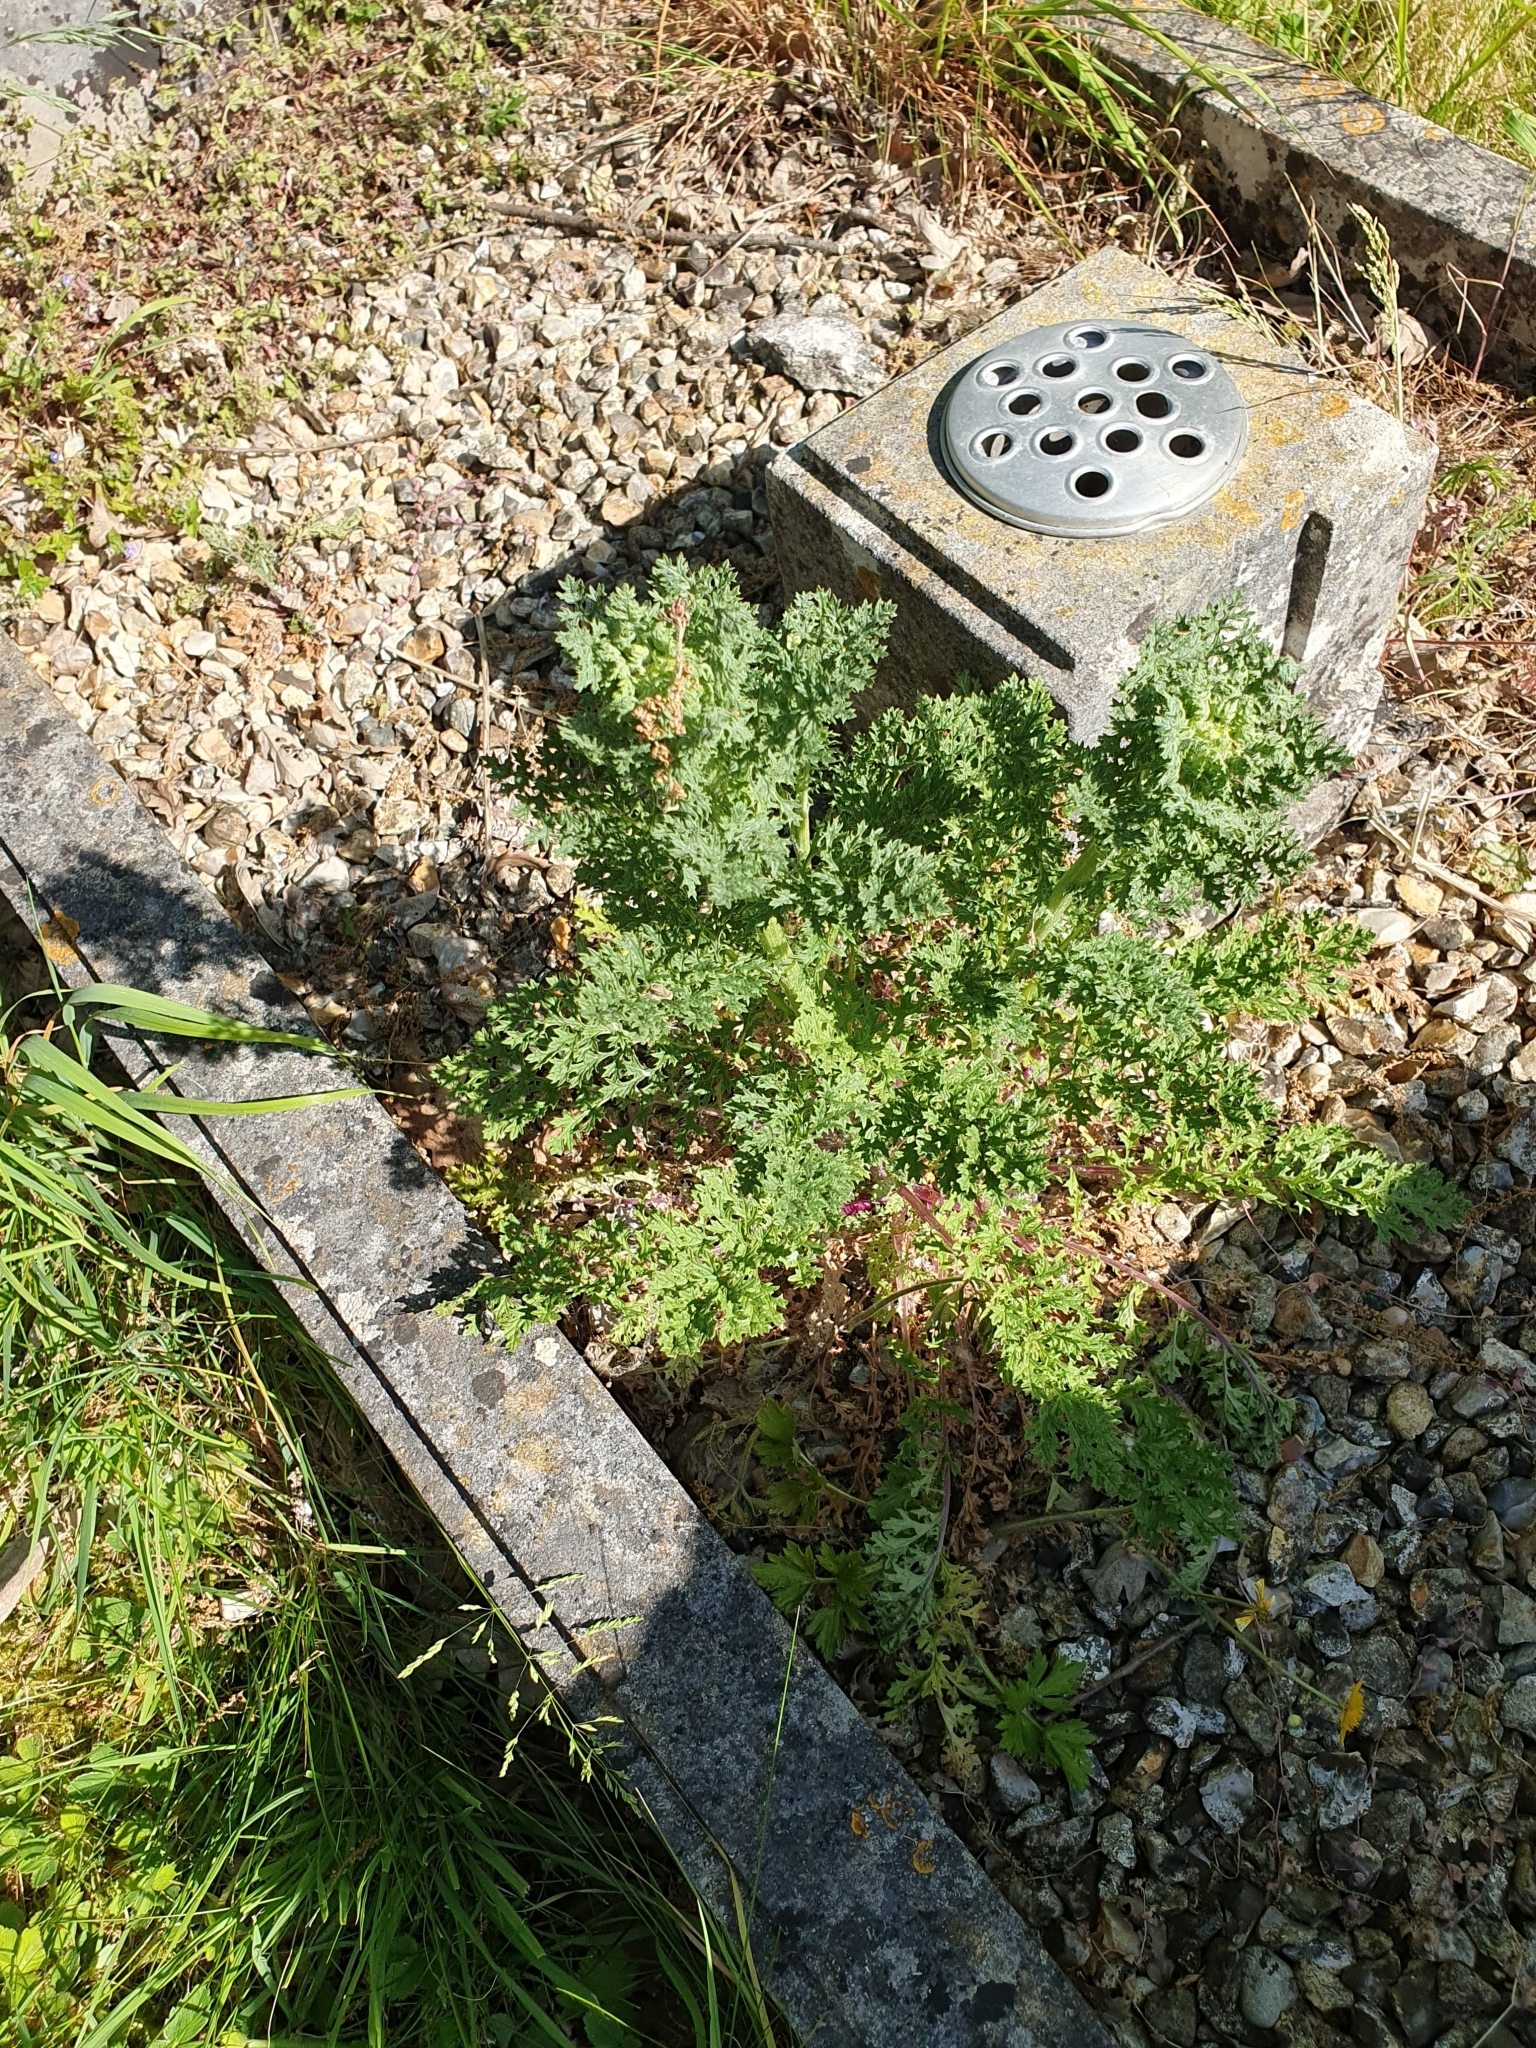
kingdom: Plantae
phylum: Tracheophyta
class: Magnoliopsida
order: Asterales
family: Asteraceae
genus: Jacobaea
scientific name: Jacobaea vulgaris
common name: Stinking willie
